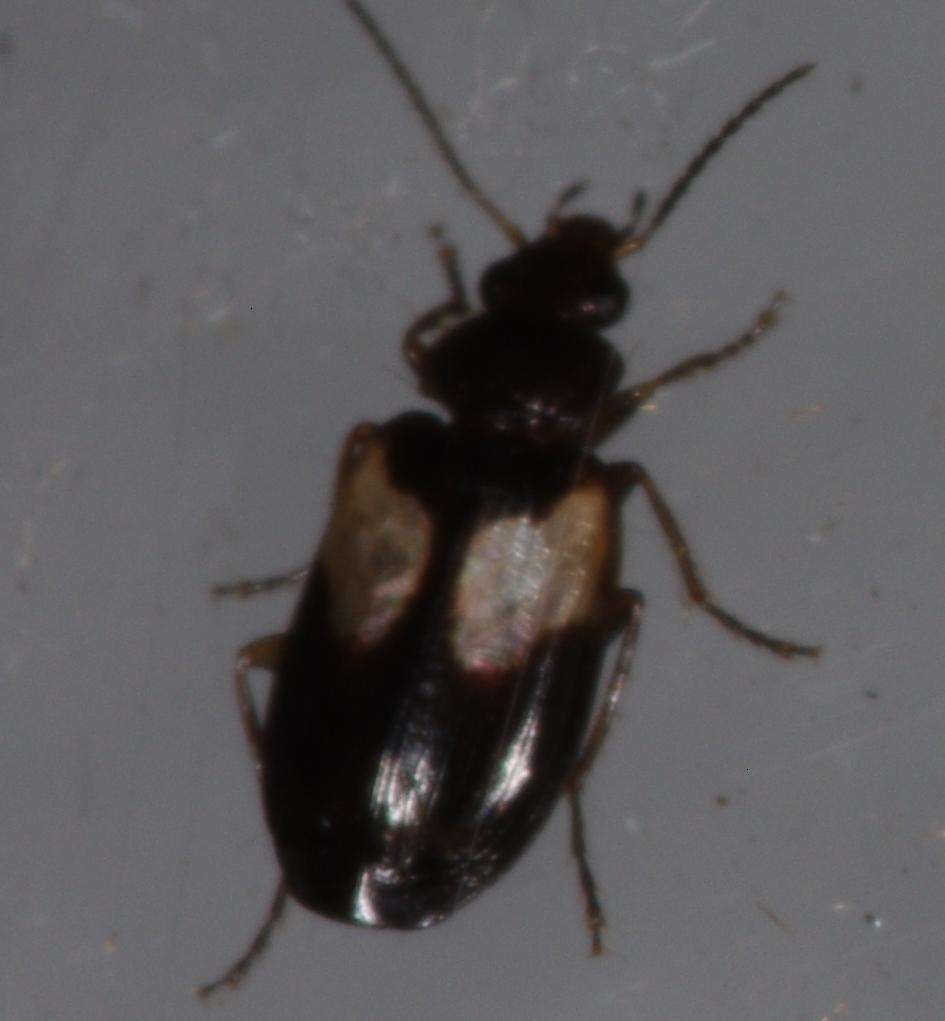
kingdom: Animalia
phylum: Arthropoda
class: Insecta
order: Coleoptera
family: Carabidae
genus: Sarothrocrepis
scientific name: Sarothrocrepis civica
